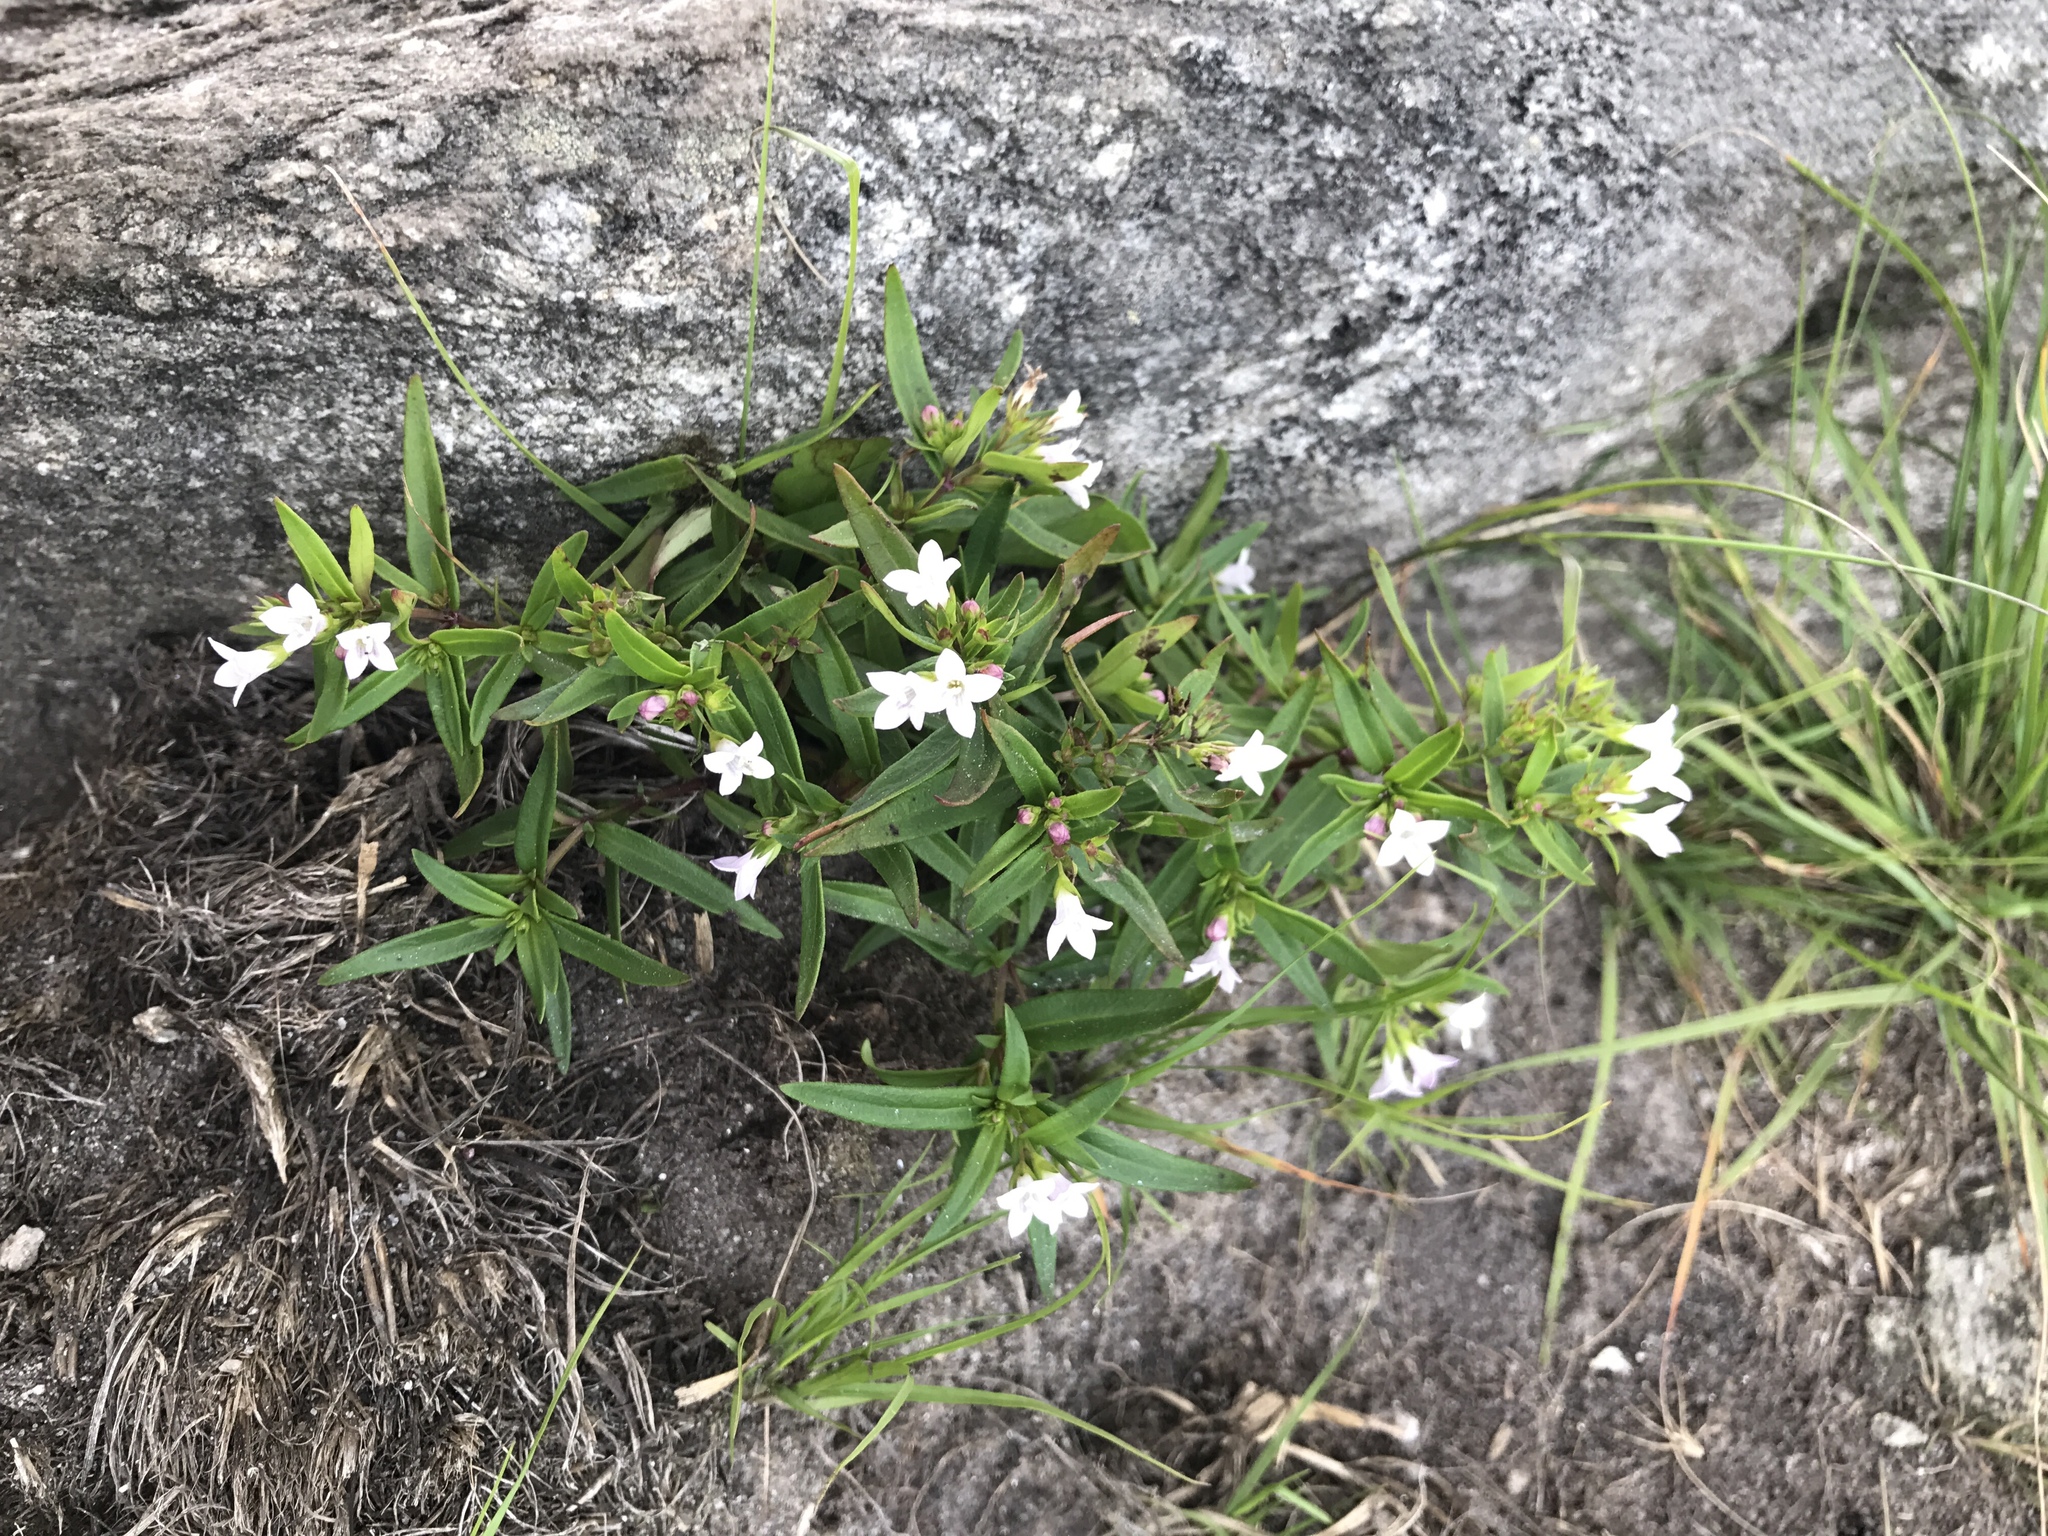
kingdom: Plantae
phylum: Tracheophyta
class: Magnoliopsida
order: Gentianales
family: Rubiaceae
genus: Houstonia
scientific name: Houstonia longifolia
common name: Long-leaved bluets
